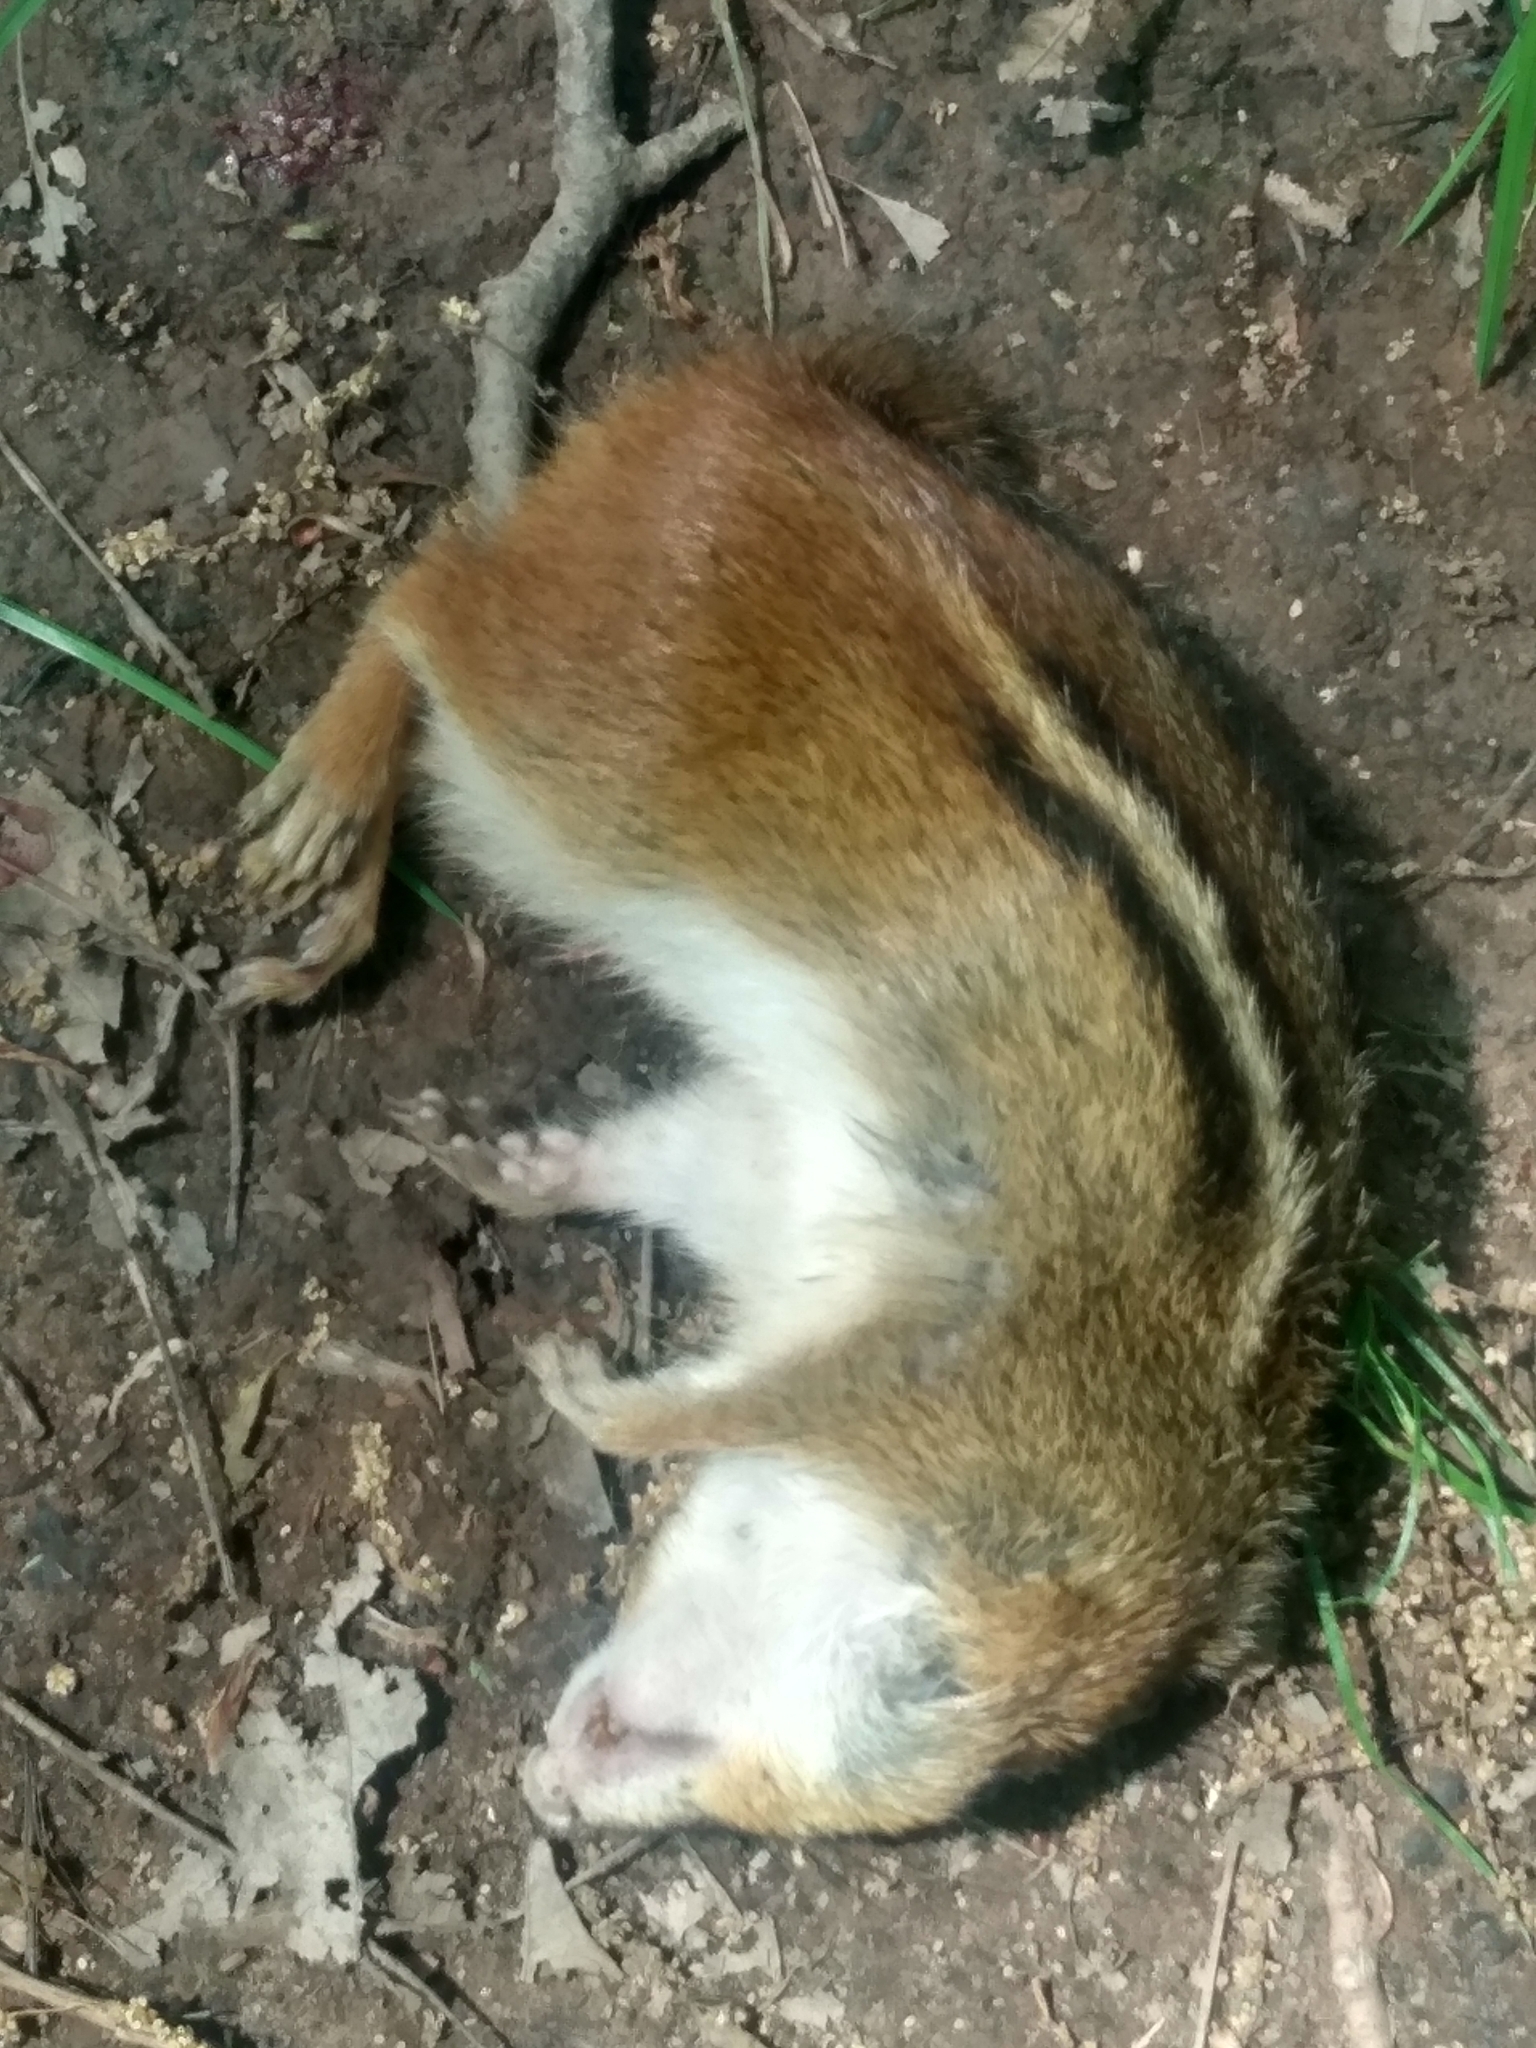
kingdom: Animalia
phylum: Chordata
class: Mammalia
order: Rodentia
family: Sciuridae
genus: Tamias
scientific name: Tamias striatus
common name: Eastern chipmunk
